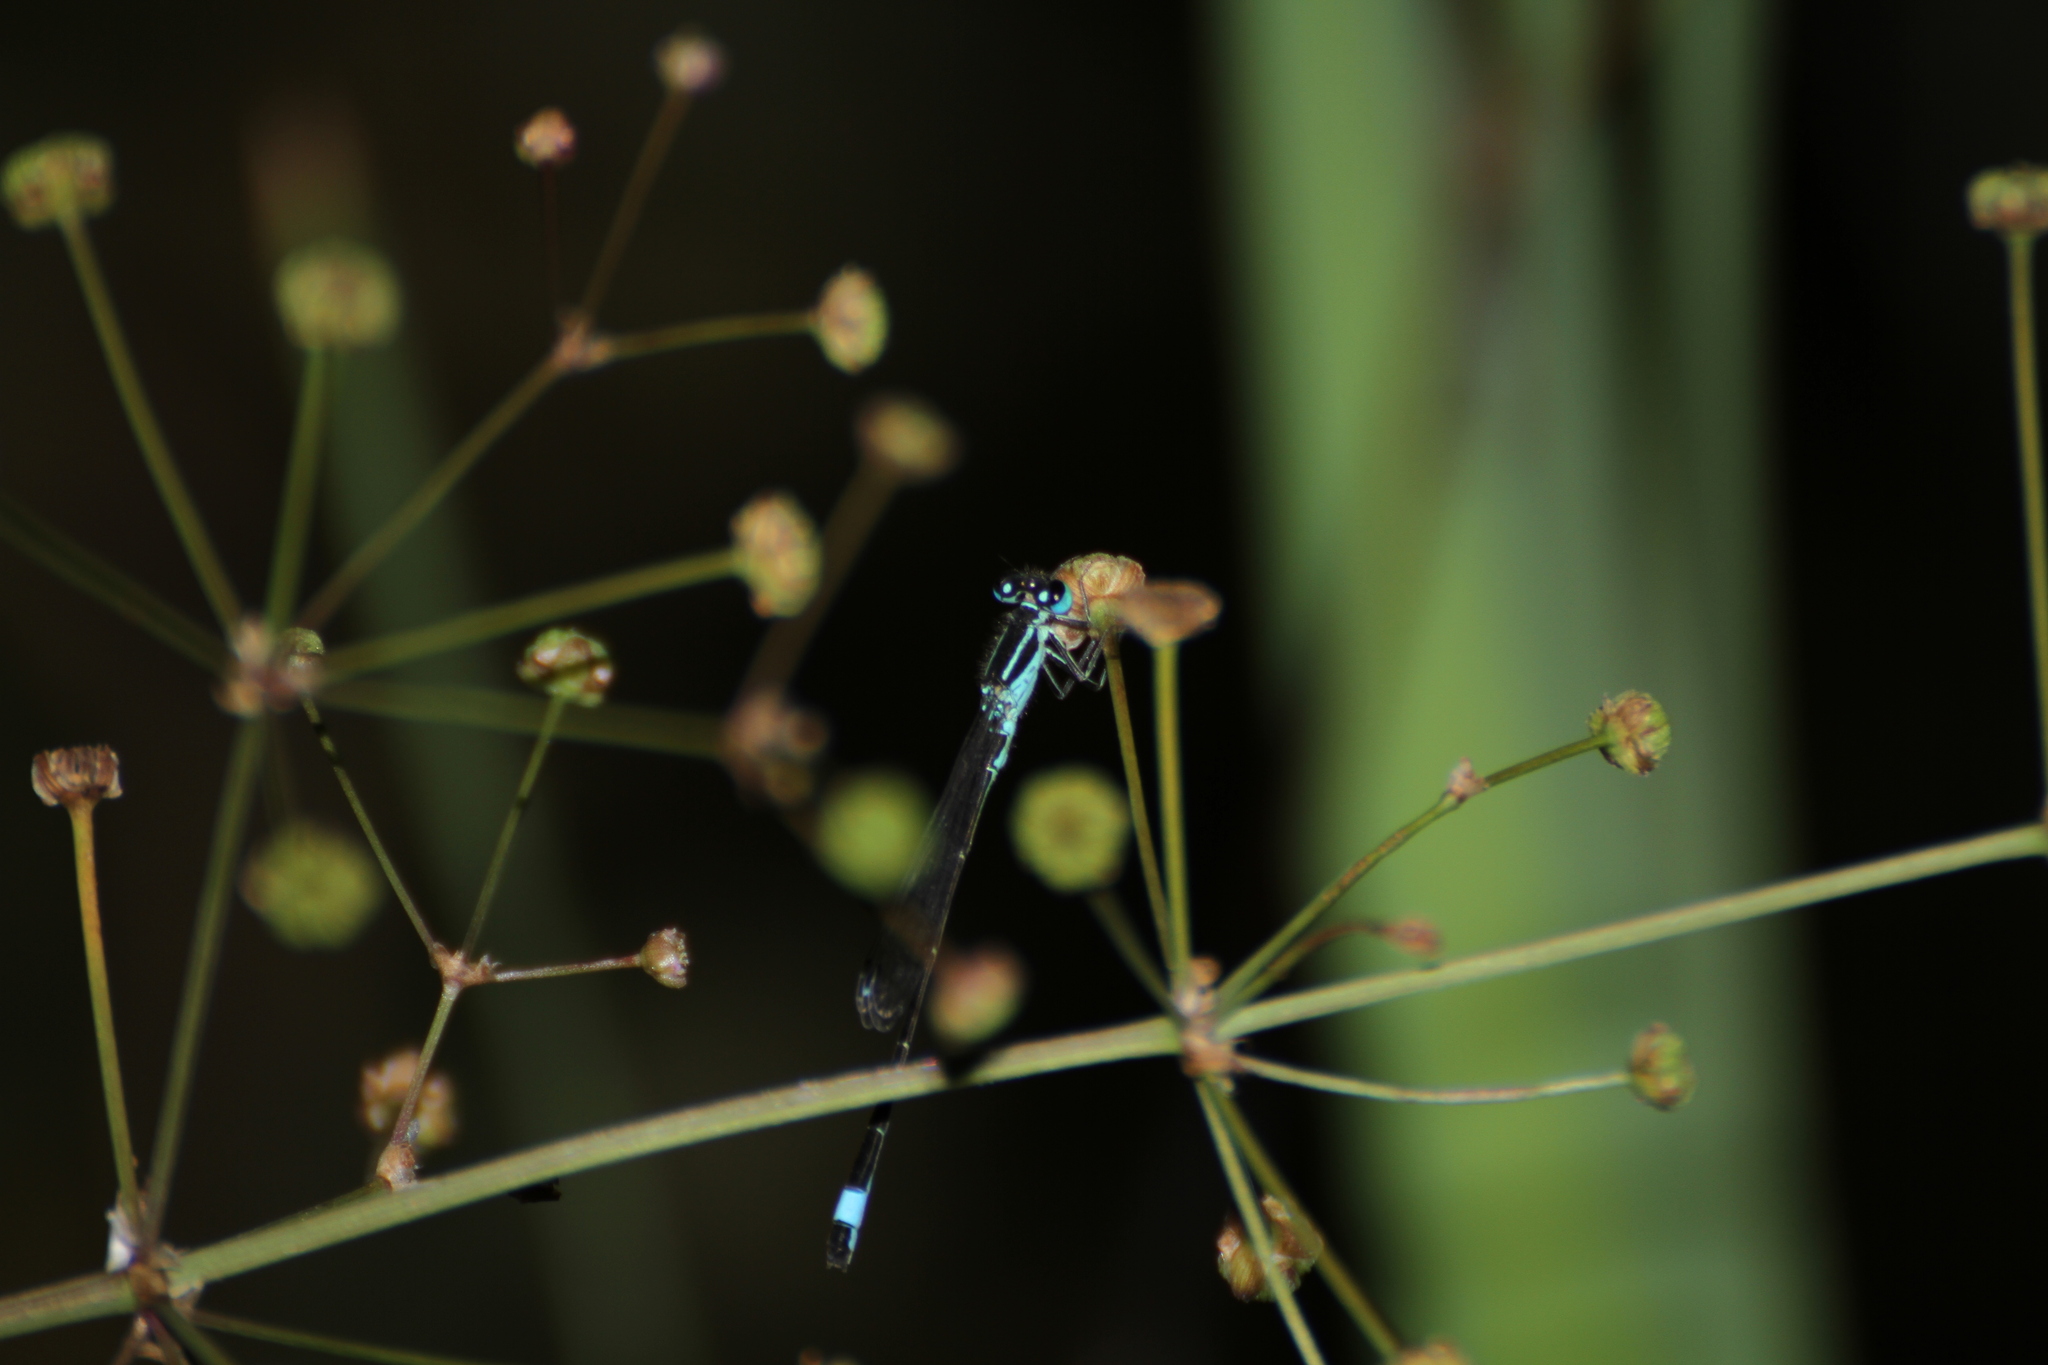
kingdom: Animalia
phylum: Arthropoda
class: Insecta
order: Odonata
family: Coenagrionidae
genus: Ischnura
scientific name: Ischnura elegans
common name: Blue-tailed damselfly
